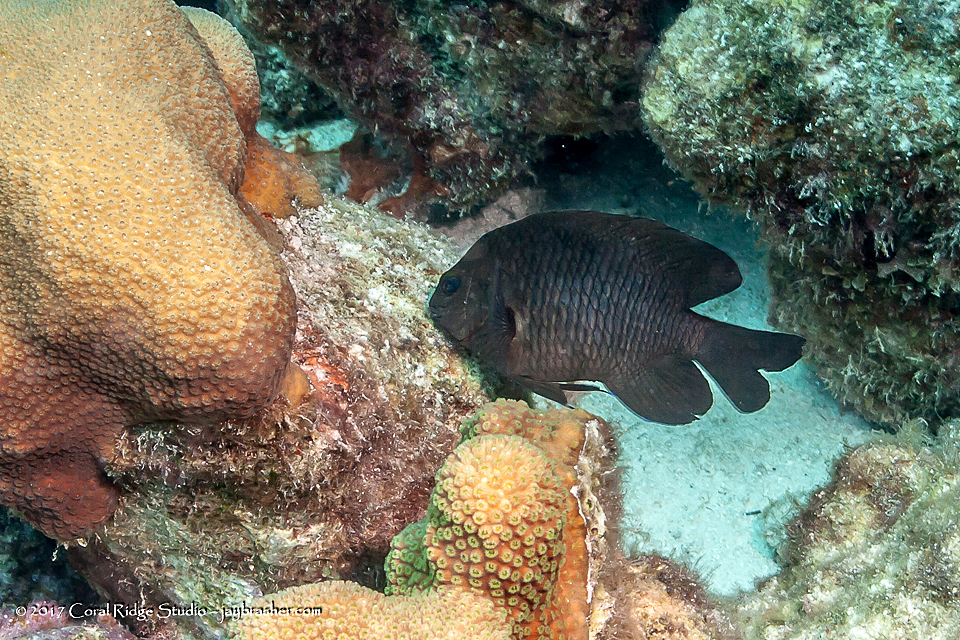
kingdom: Animalia
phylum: Chordata
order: Perciformes
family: Pomacentridae
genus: Stegastes
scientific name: Stegastes adustus
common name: Dusky damselfish
